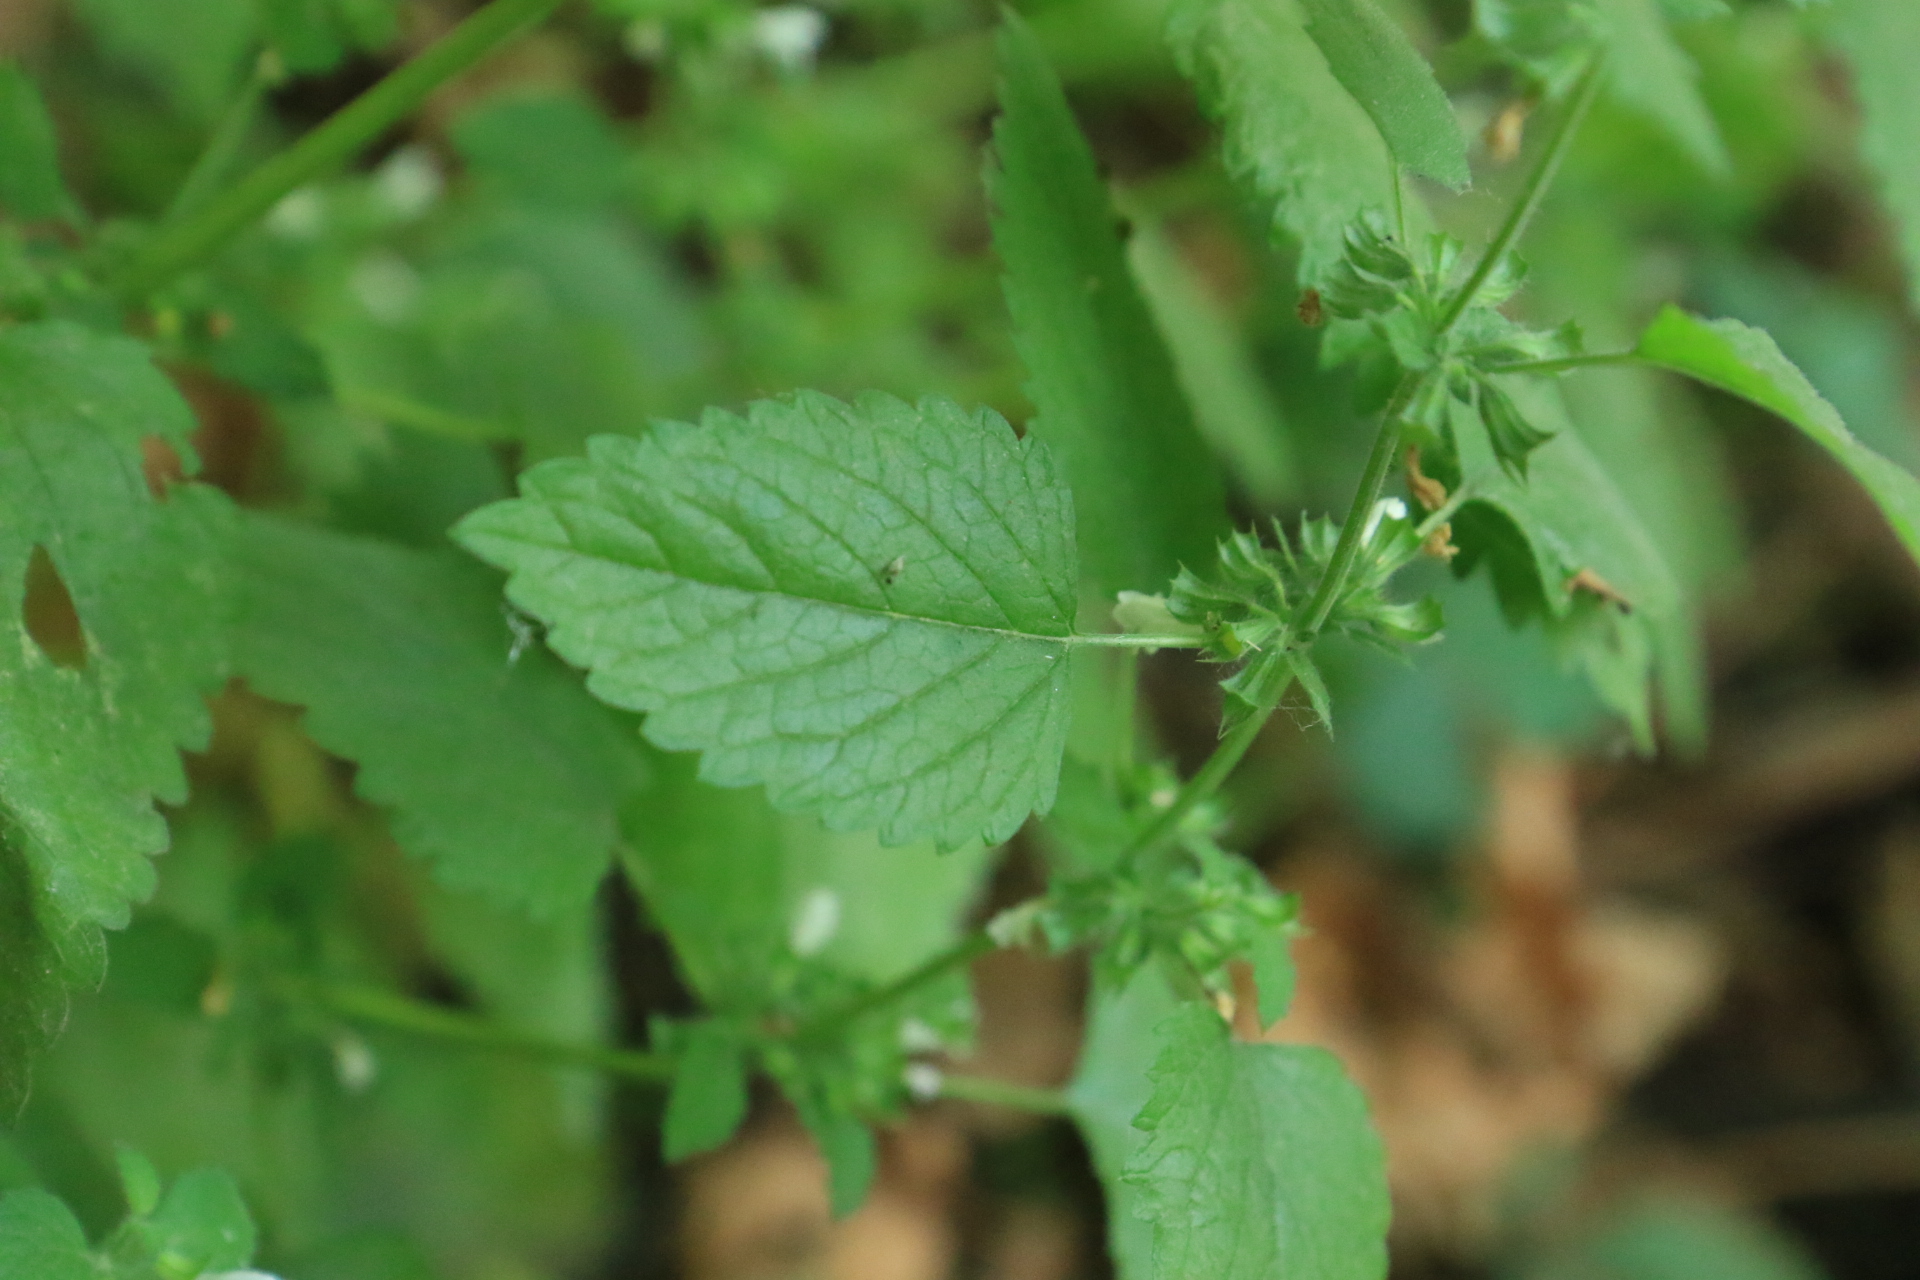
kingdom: Plantae
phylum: Tracheophyta
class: Magnoliopsida
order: Lamiales
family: Lamiaceae
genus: Melissa
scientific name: Melissa officinalis
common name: Balm
